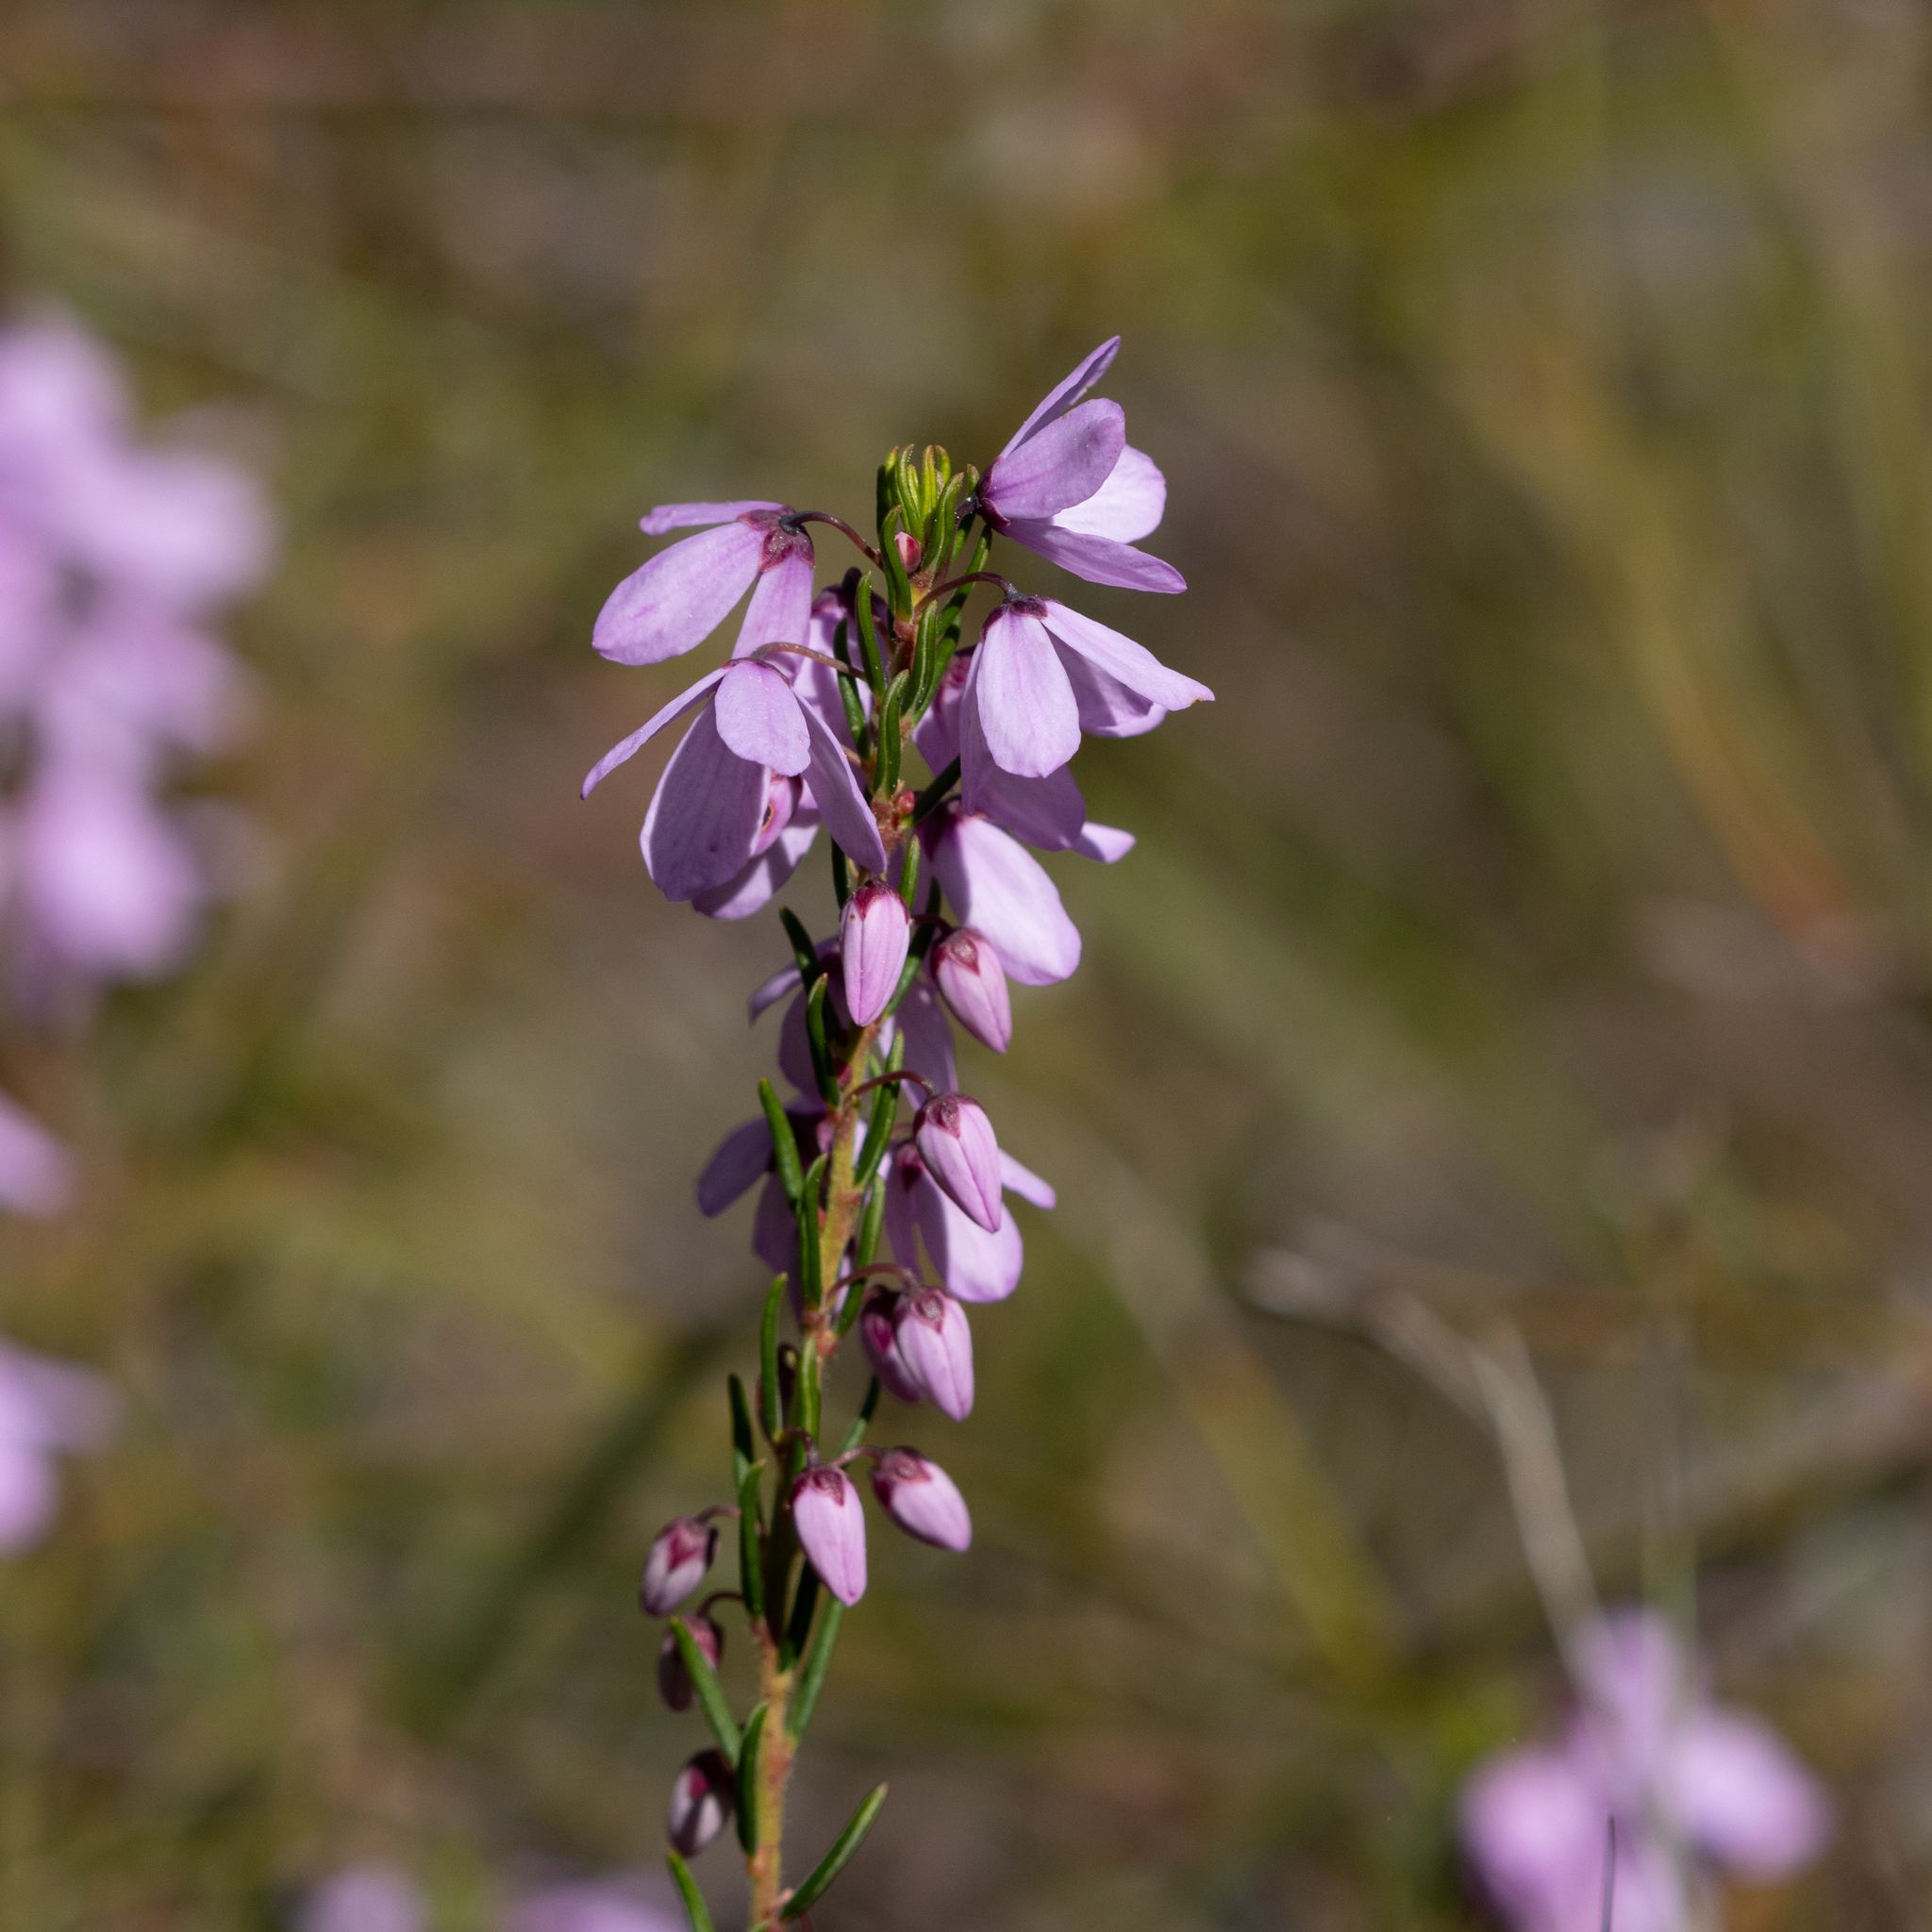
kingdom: Plantae
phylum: Tracheophyta
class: Magnoliopsida
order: Oxalidales
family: Elaeocarpaceae
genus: Tetratheca
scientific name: Tetratheca pilosa
